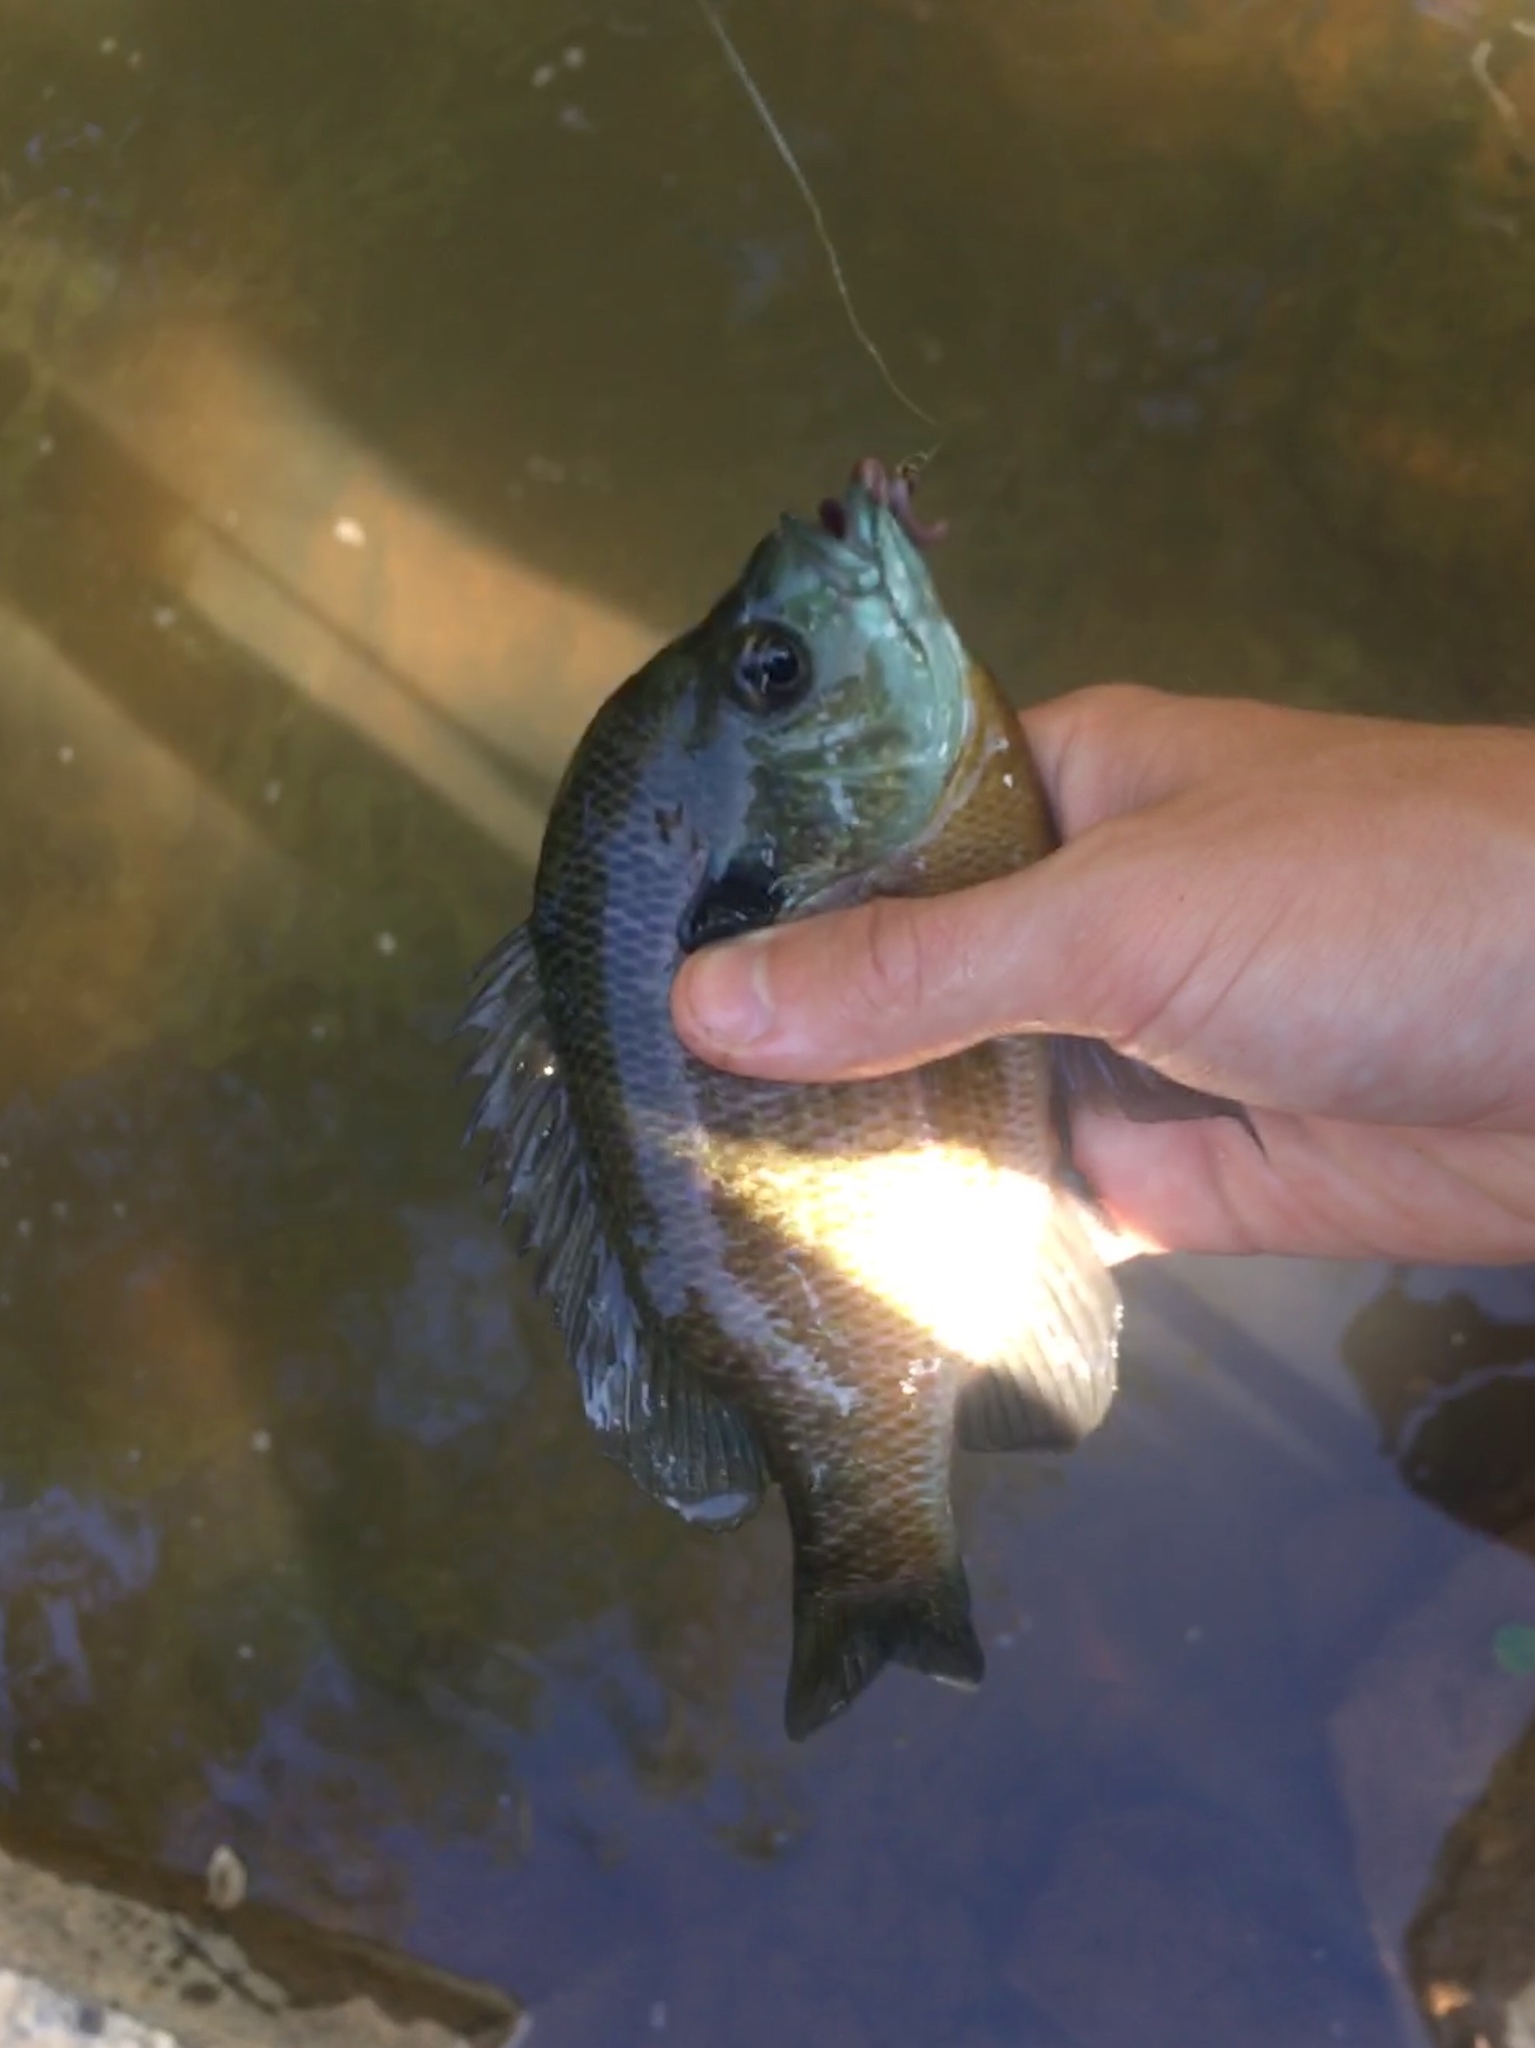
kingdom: Animalia
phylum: Chordata
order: Perciformes
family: Centrarchidae
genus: Lepomis
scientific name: Lepomis macrochirus
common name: Bluegill
